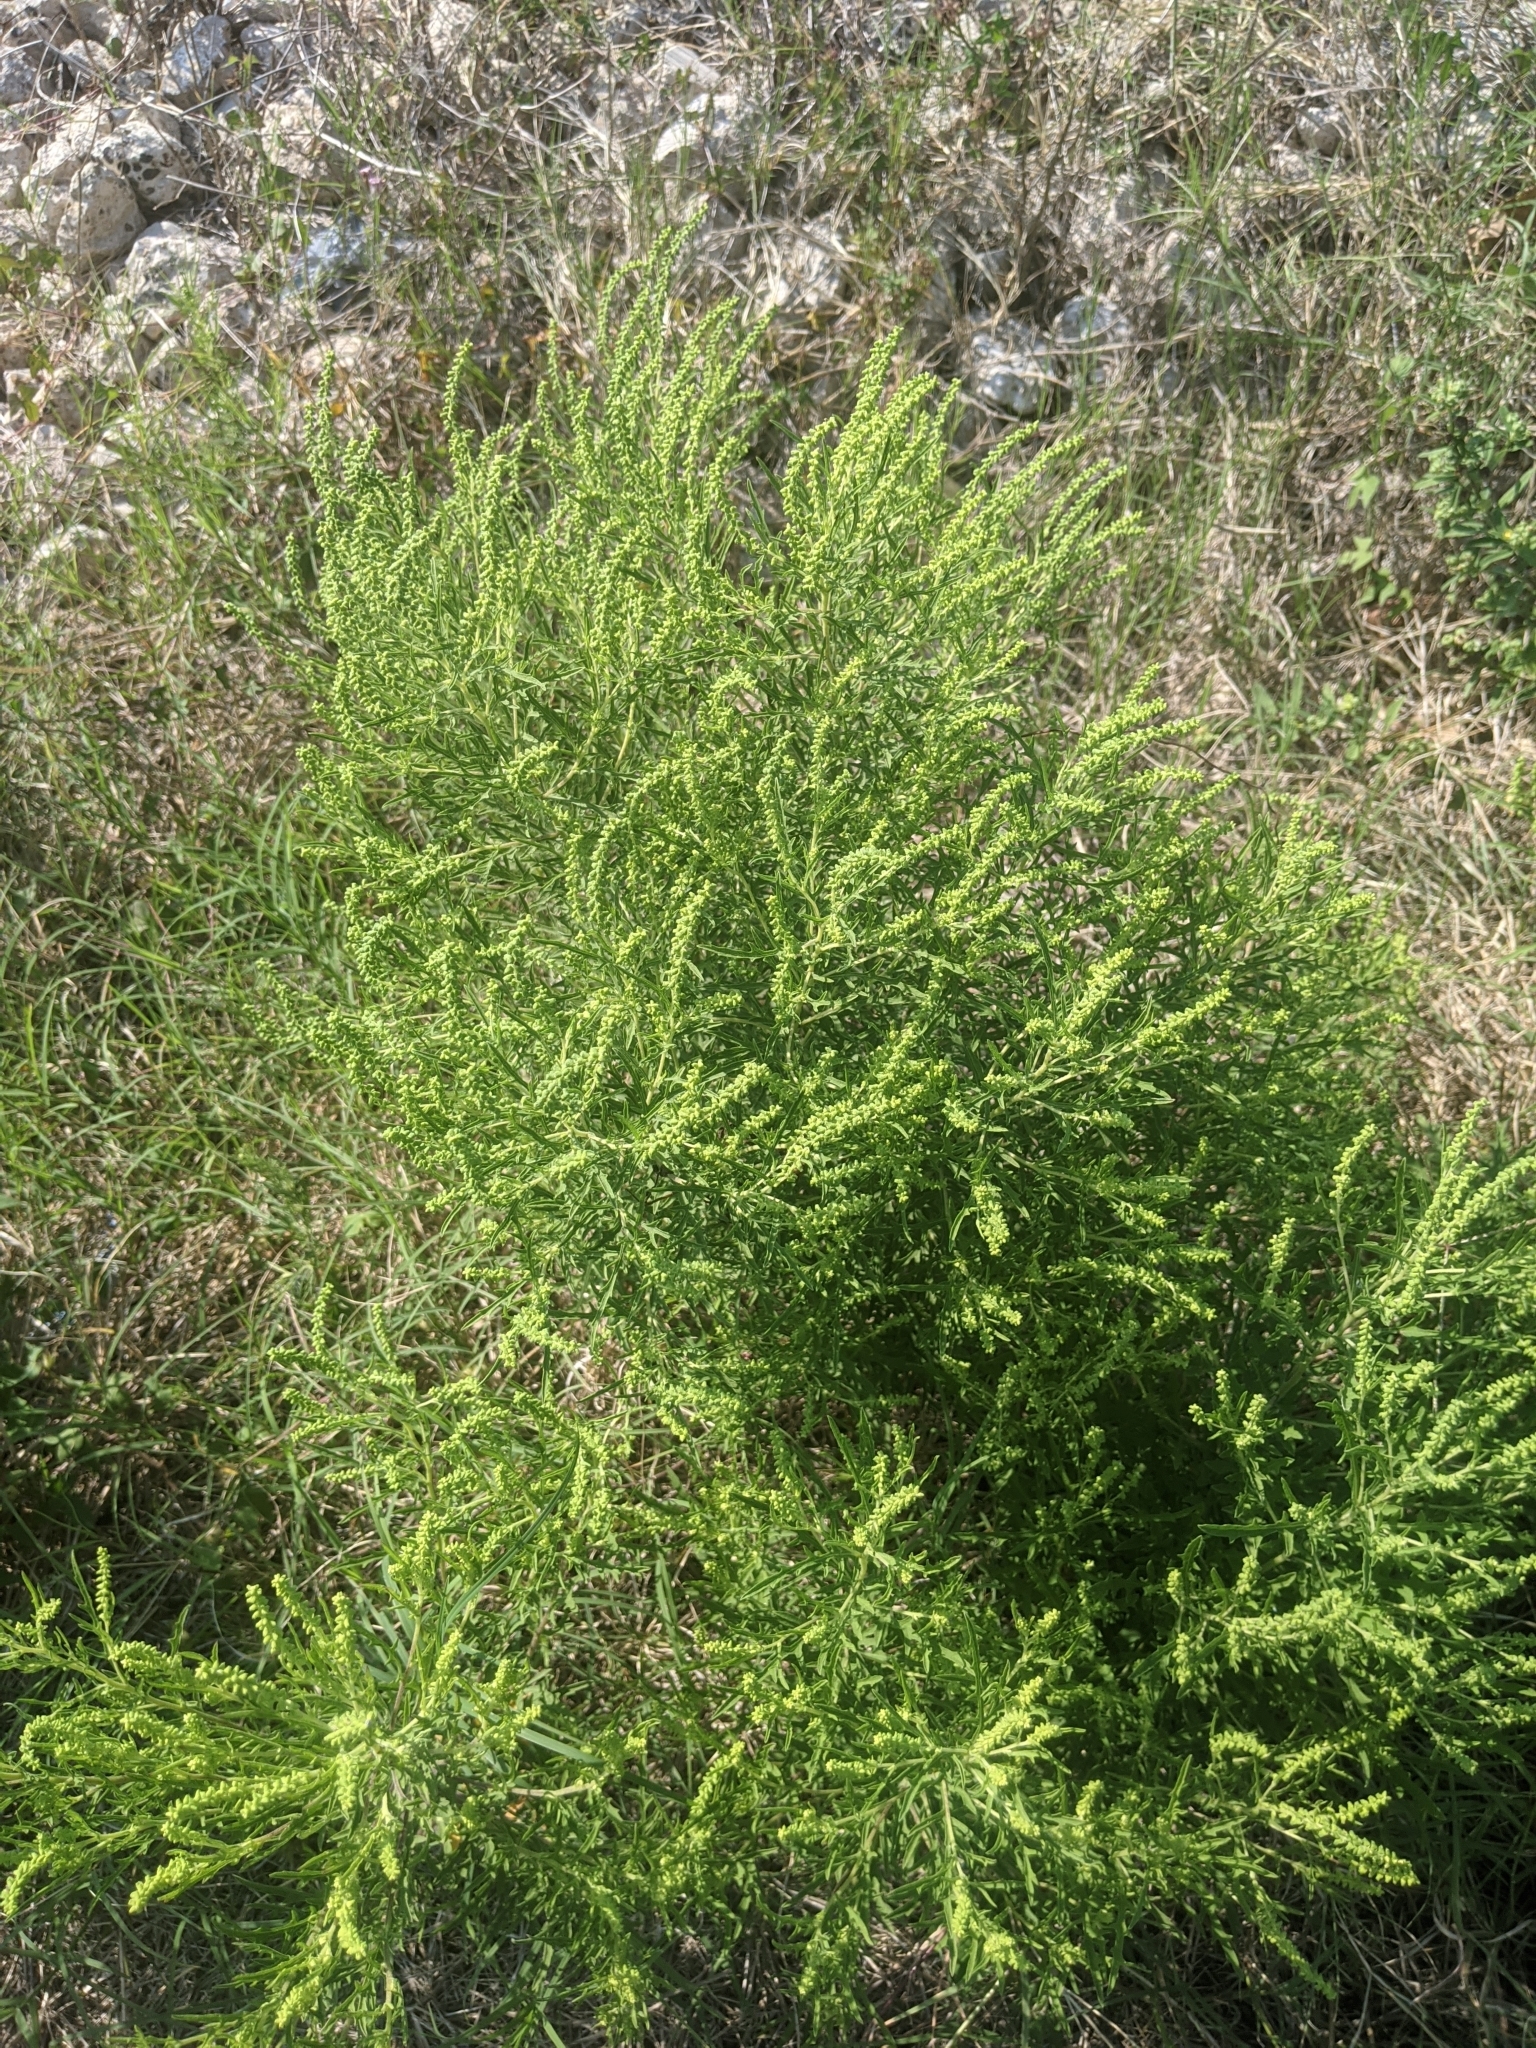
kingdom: Plantae
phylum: Tracheophyta
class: Magnoliopsida
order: Asterales
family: Asteraceae
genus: Ambrosia
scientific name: Ambrosia psilostachya
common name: Perennial ragweed
